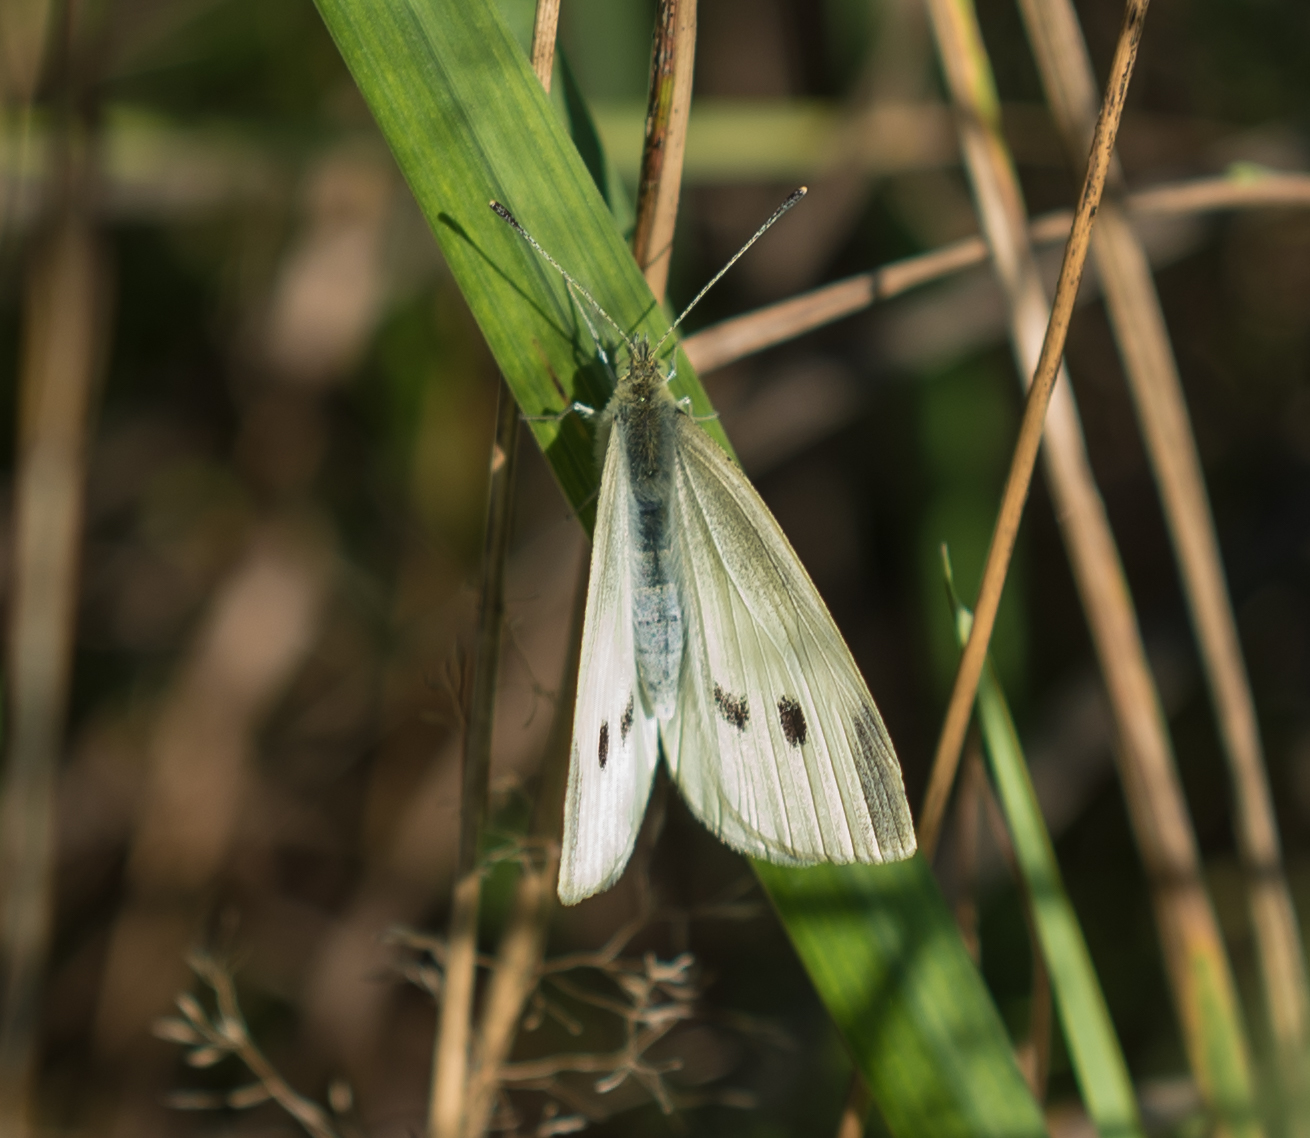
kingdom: Animalia
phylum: Arthropoda
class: Insecta
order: Lepidoptera
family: Pieridae
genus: Pieris
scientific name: Pieris rapae
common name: Small white
